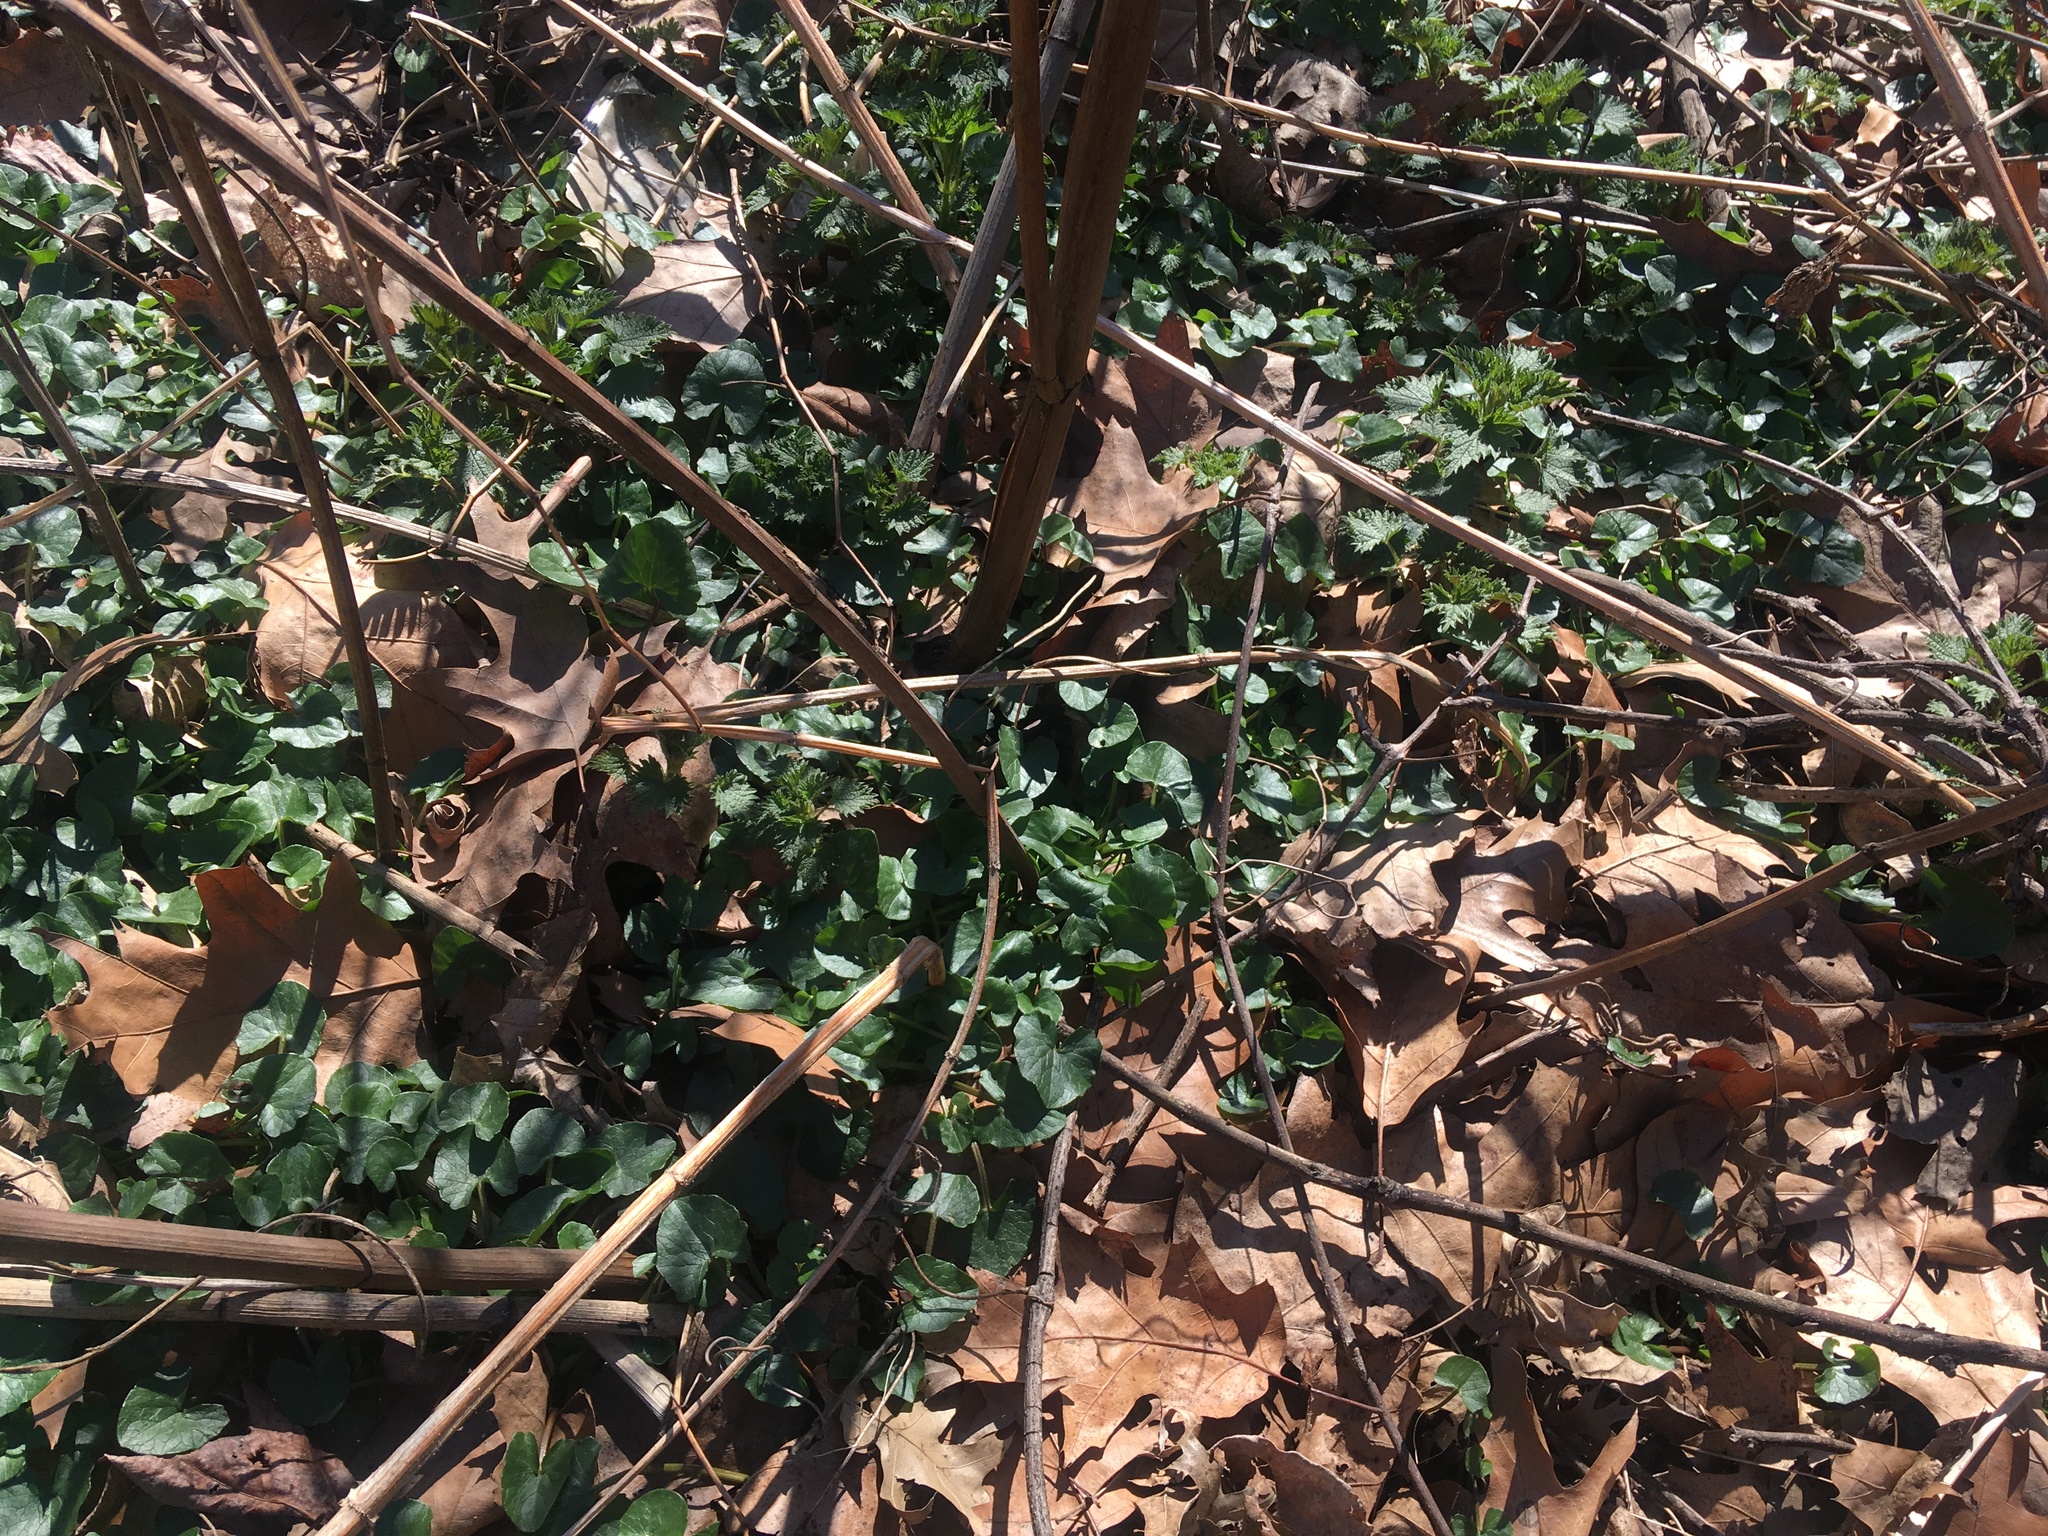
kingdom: Plantae
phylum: Tracheophyta
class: Magnoliopsida
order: Ranunculales
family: Ranunculaceae
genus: Ficaria
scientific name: Ficaria verna
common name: Lesser celandine
